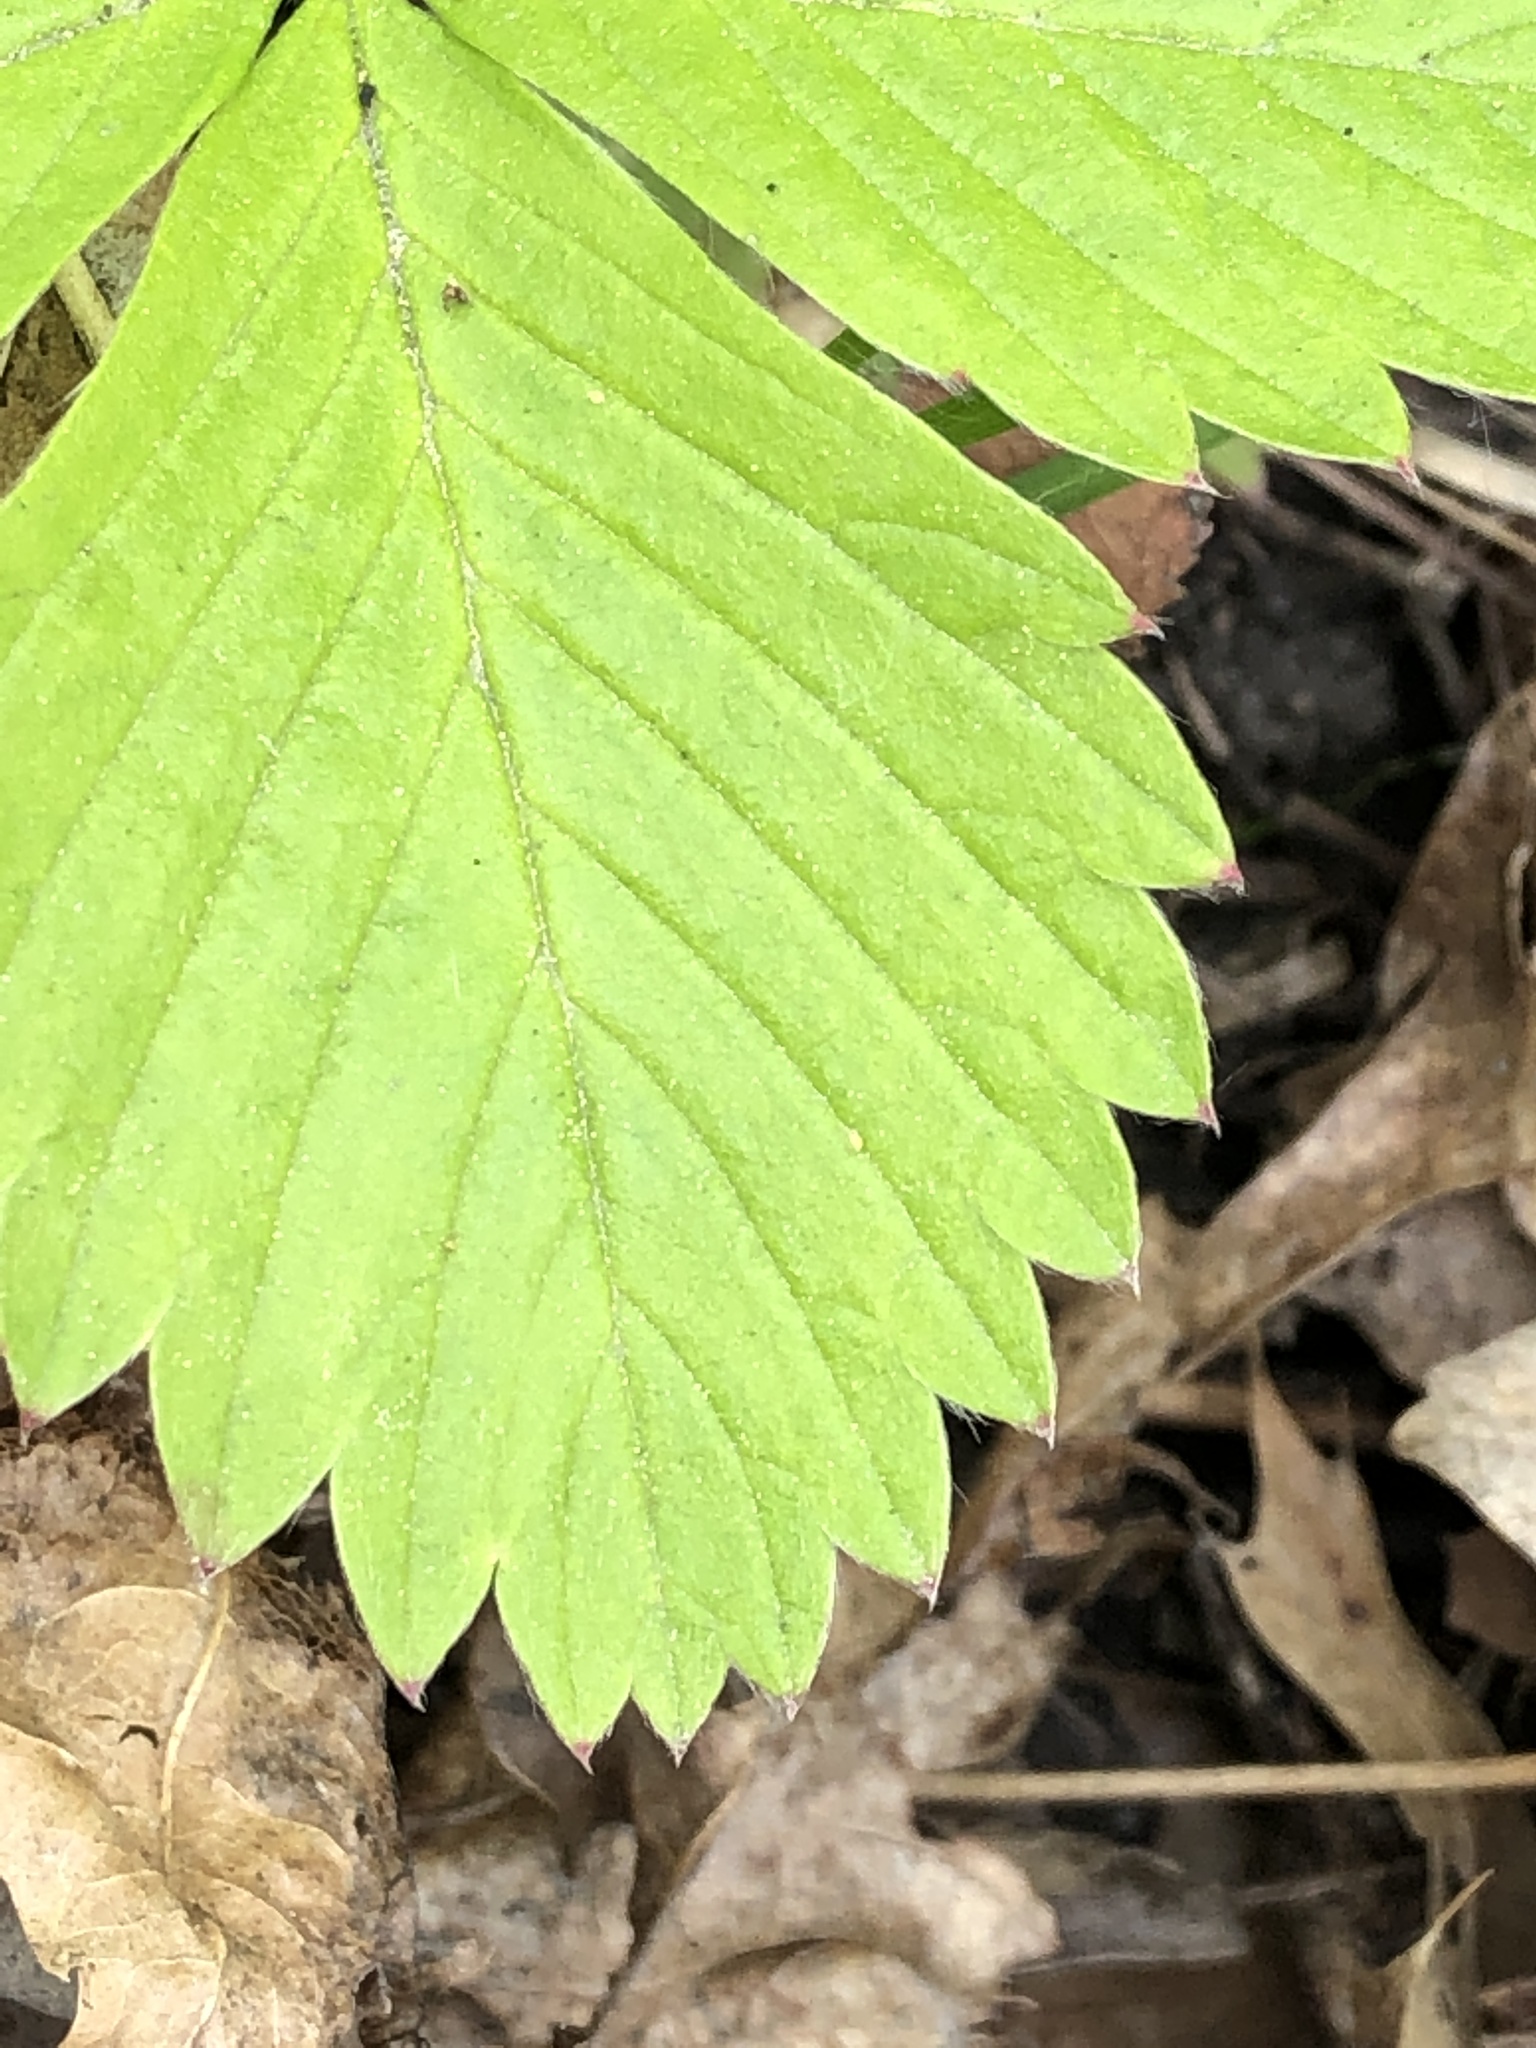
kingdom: Plantae
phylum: Tracheophyta
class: Magnoliopsida
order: Rosales
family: Rosaceae
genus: Fragaria
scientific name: Fragaria vesca
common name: Wild strawberry
